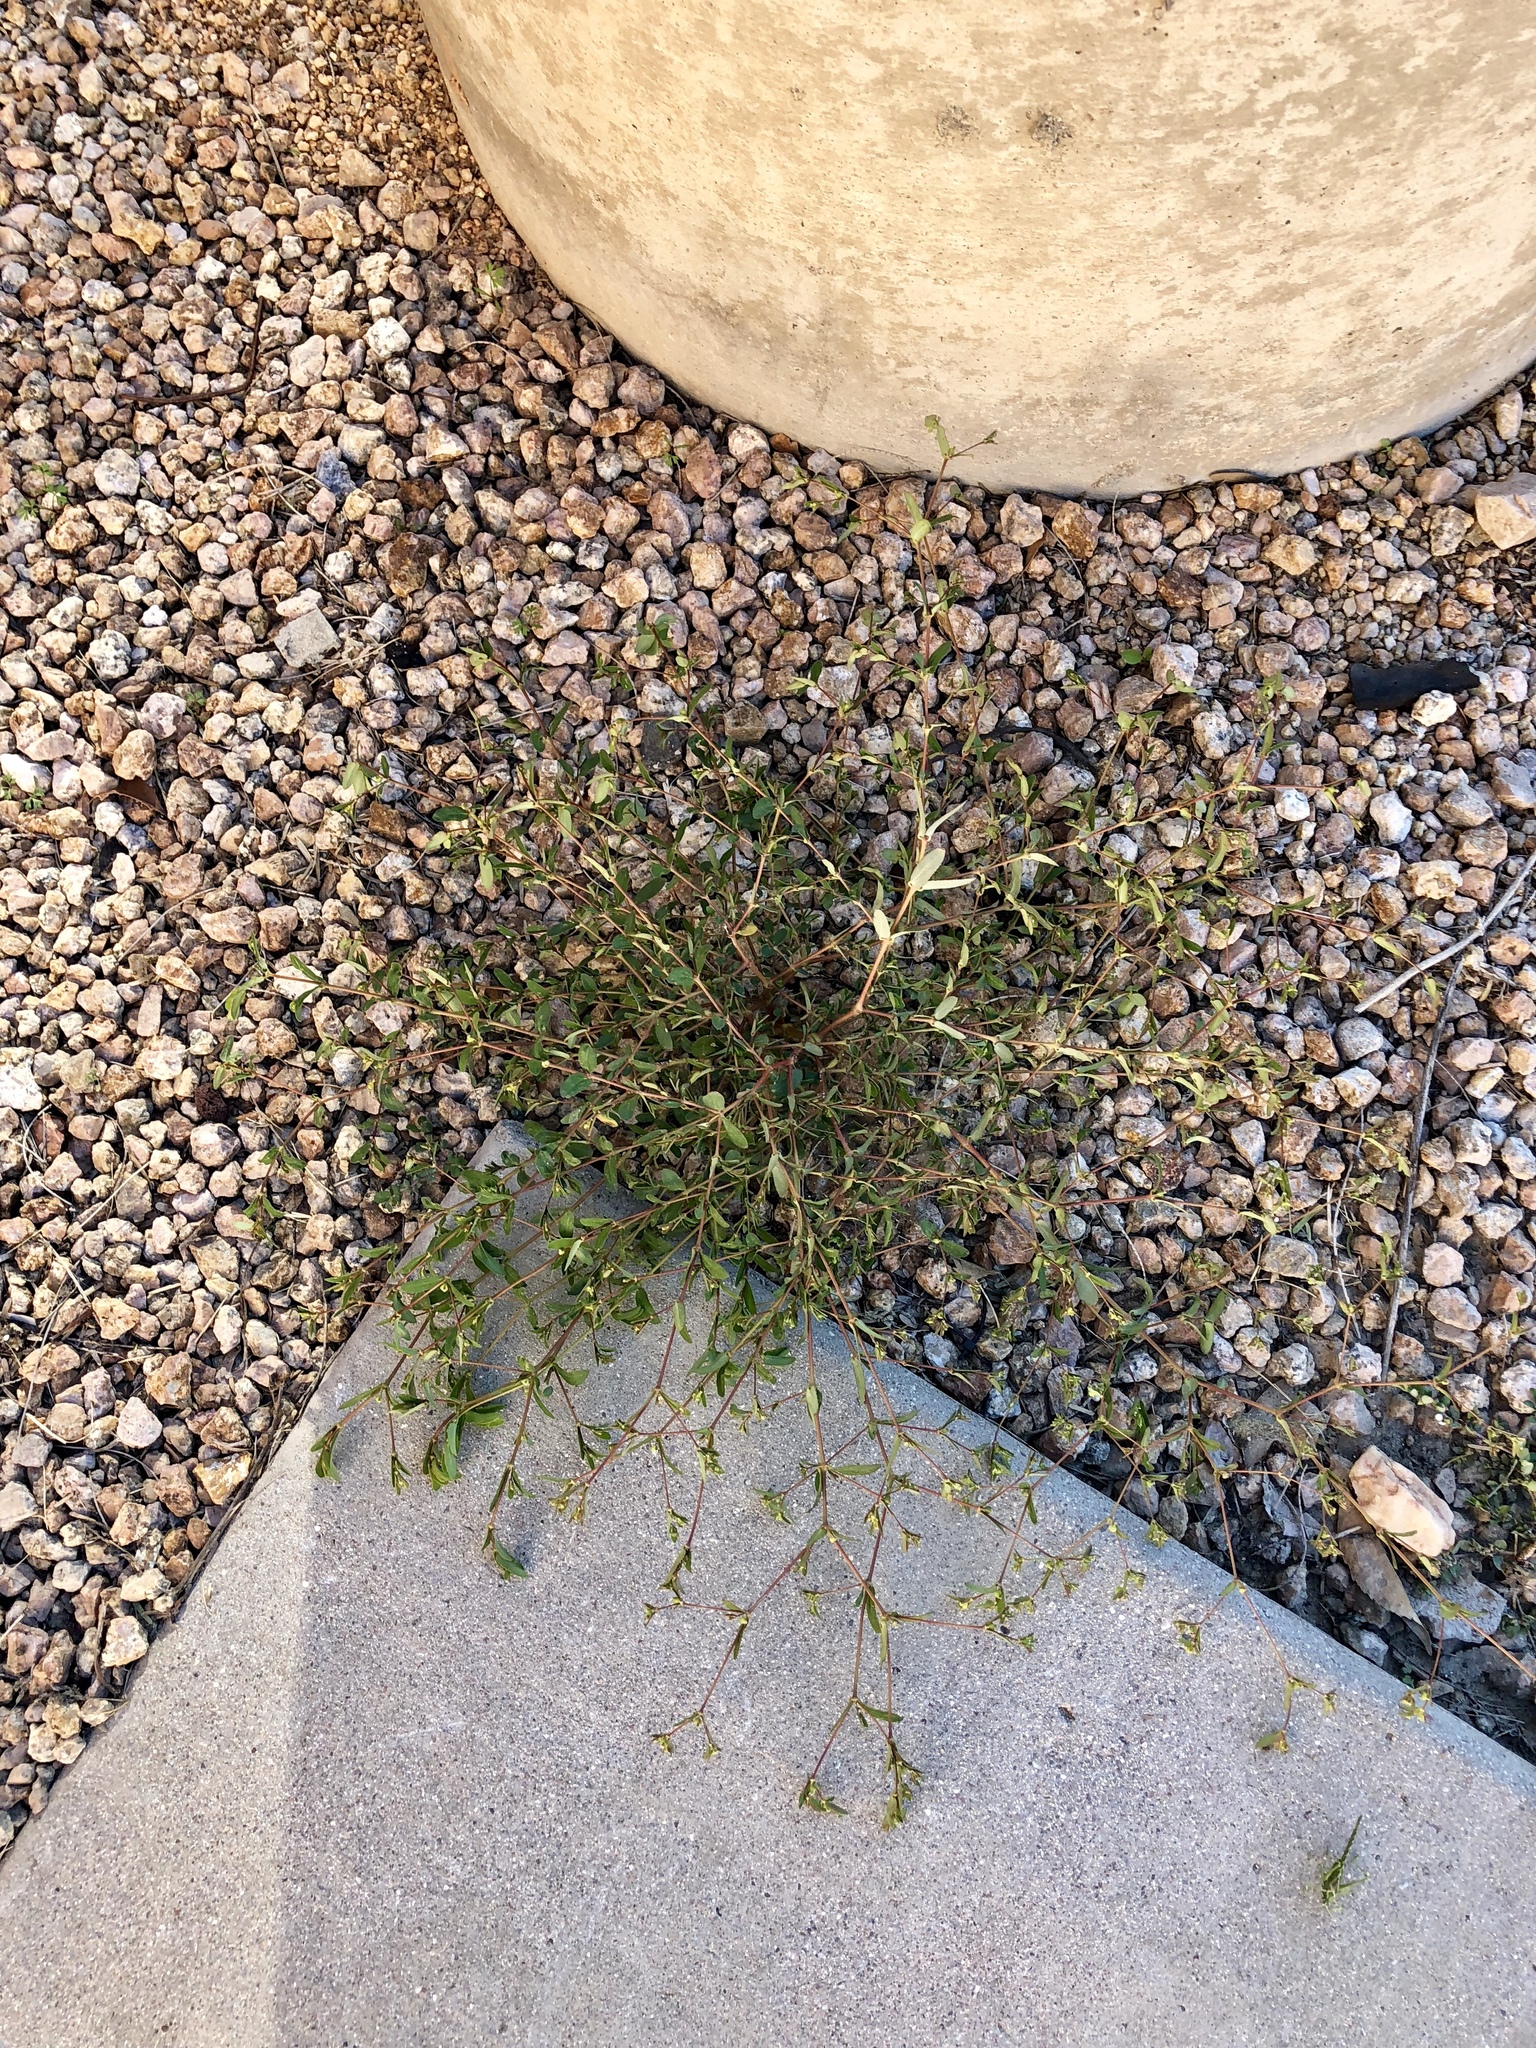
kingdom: Plantae
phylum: Tracheophyta
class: Magnoliopsida
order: Malpighiales
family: Euphorbiaceae
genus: Euphorbia
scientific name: Euphorbia hyssopifolia
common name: Hyssopleaf sandmat
